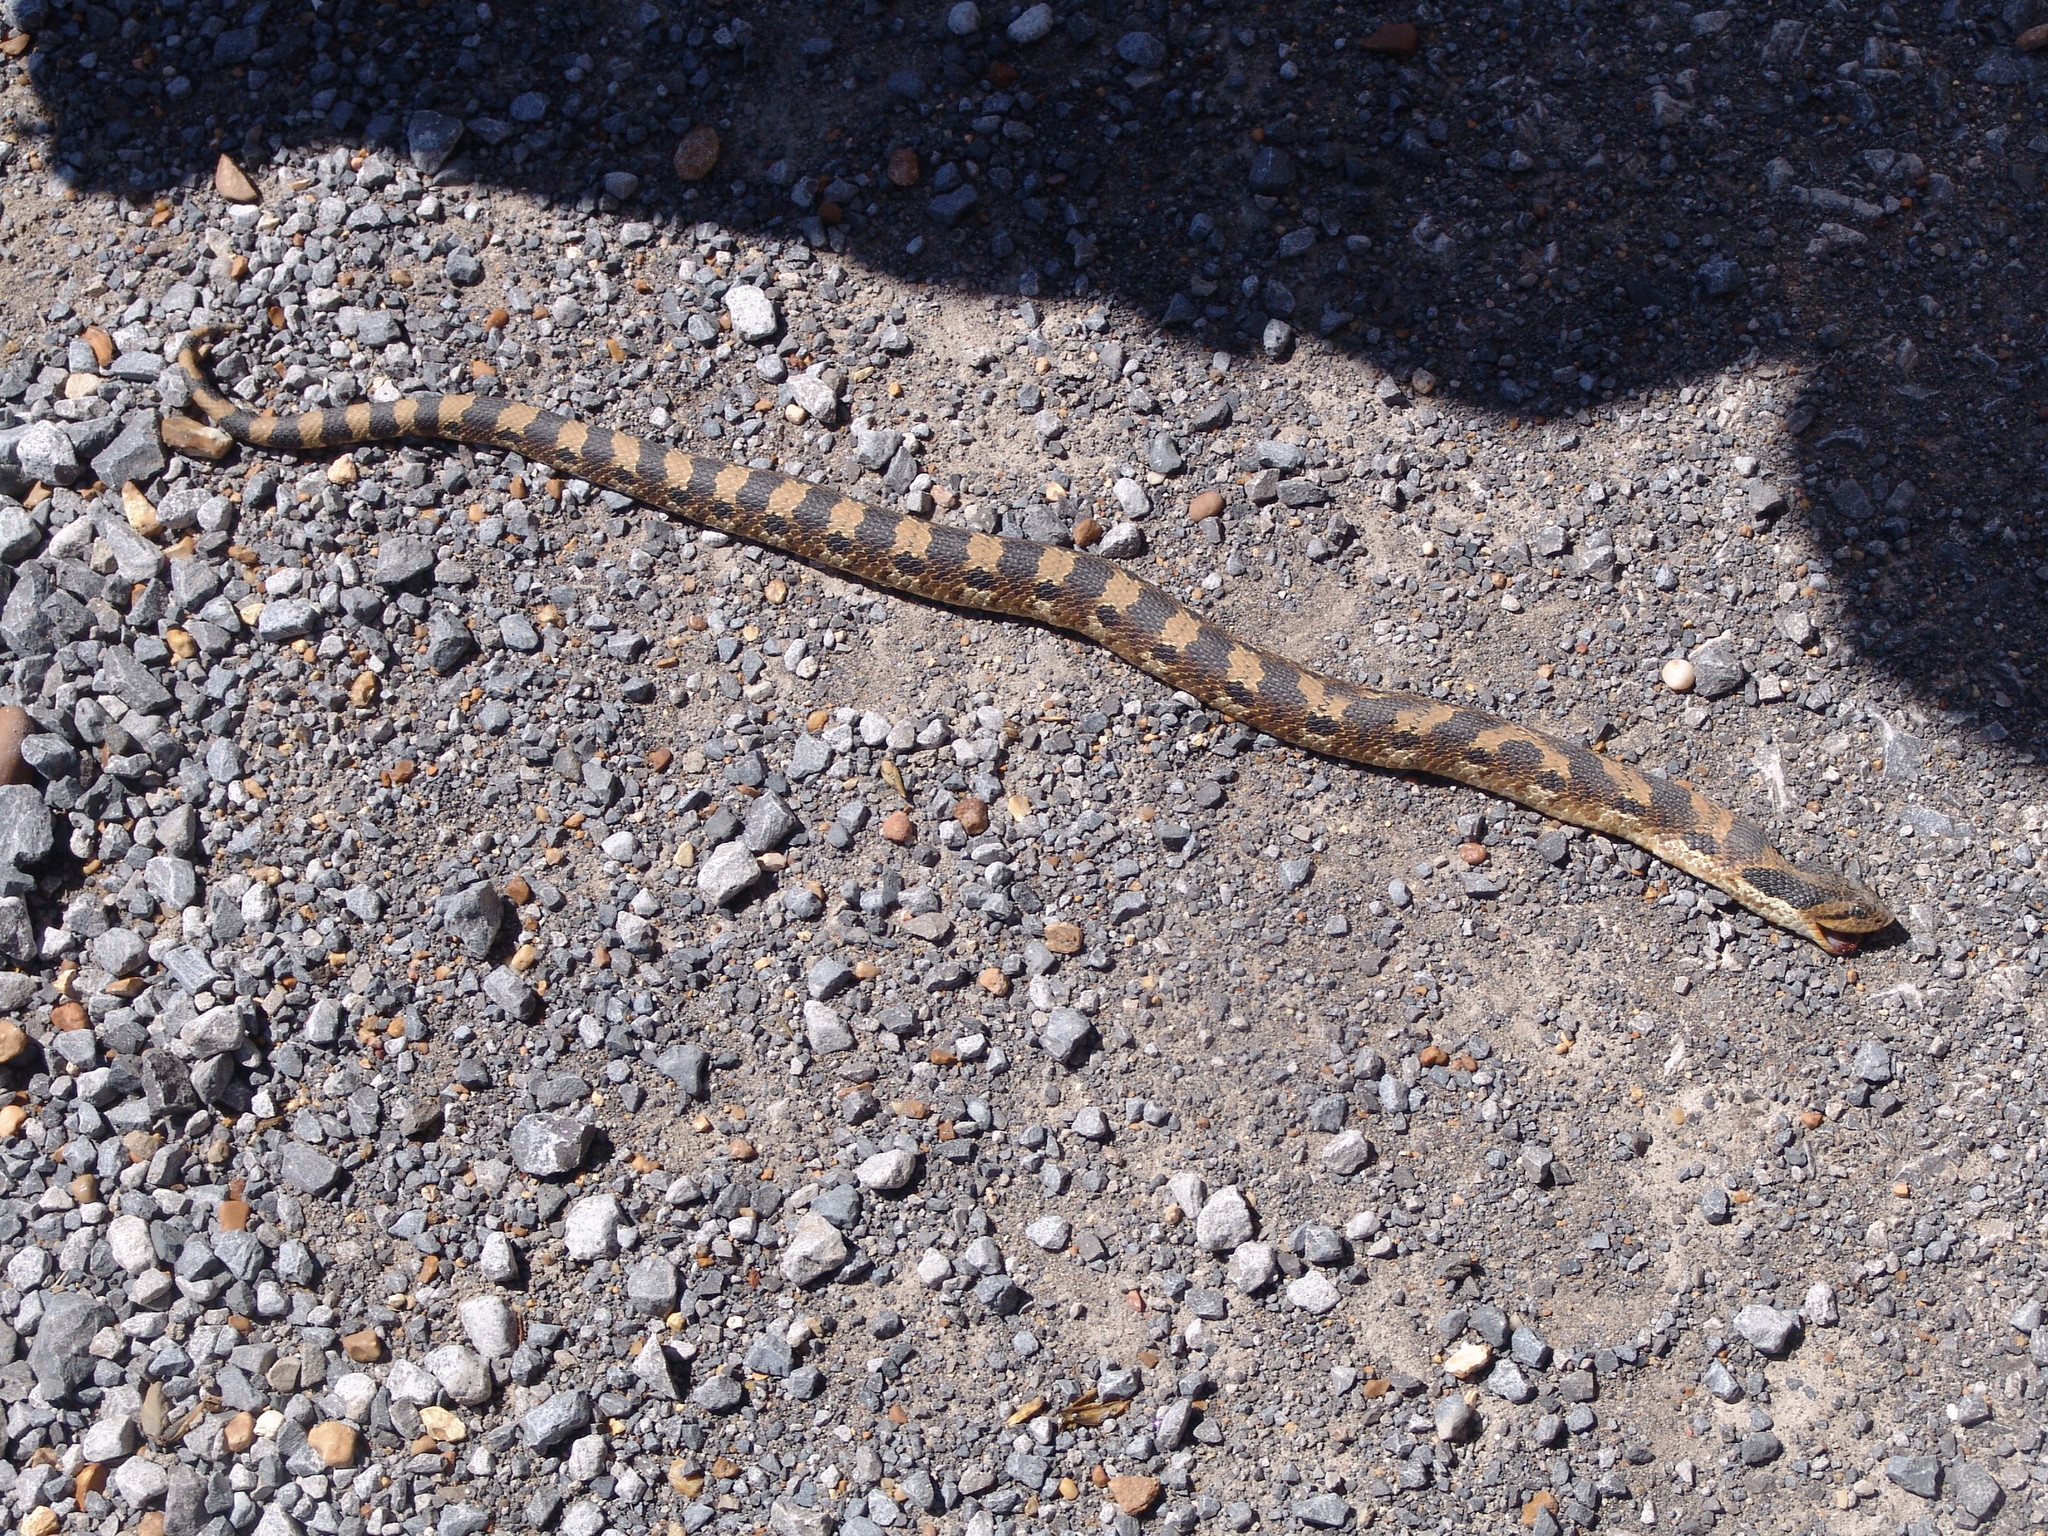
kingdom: Animalia
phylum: Chordata
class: Squamata
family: Colubridae
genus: Heterodon
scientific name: Heterodon platirhinos
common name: Eastern hognose snake
